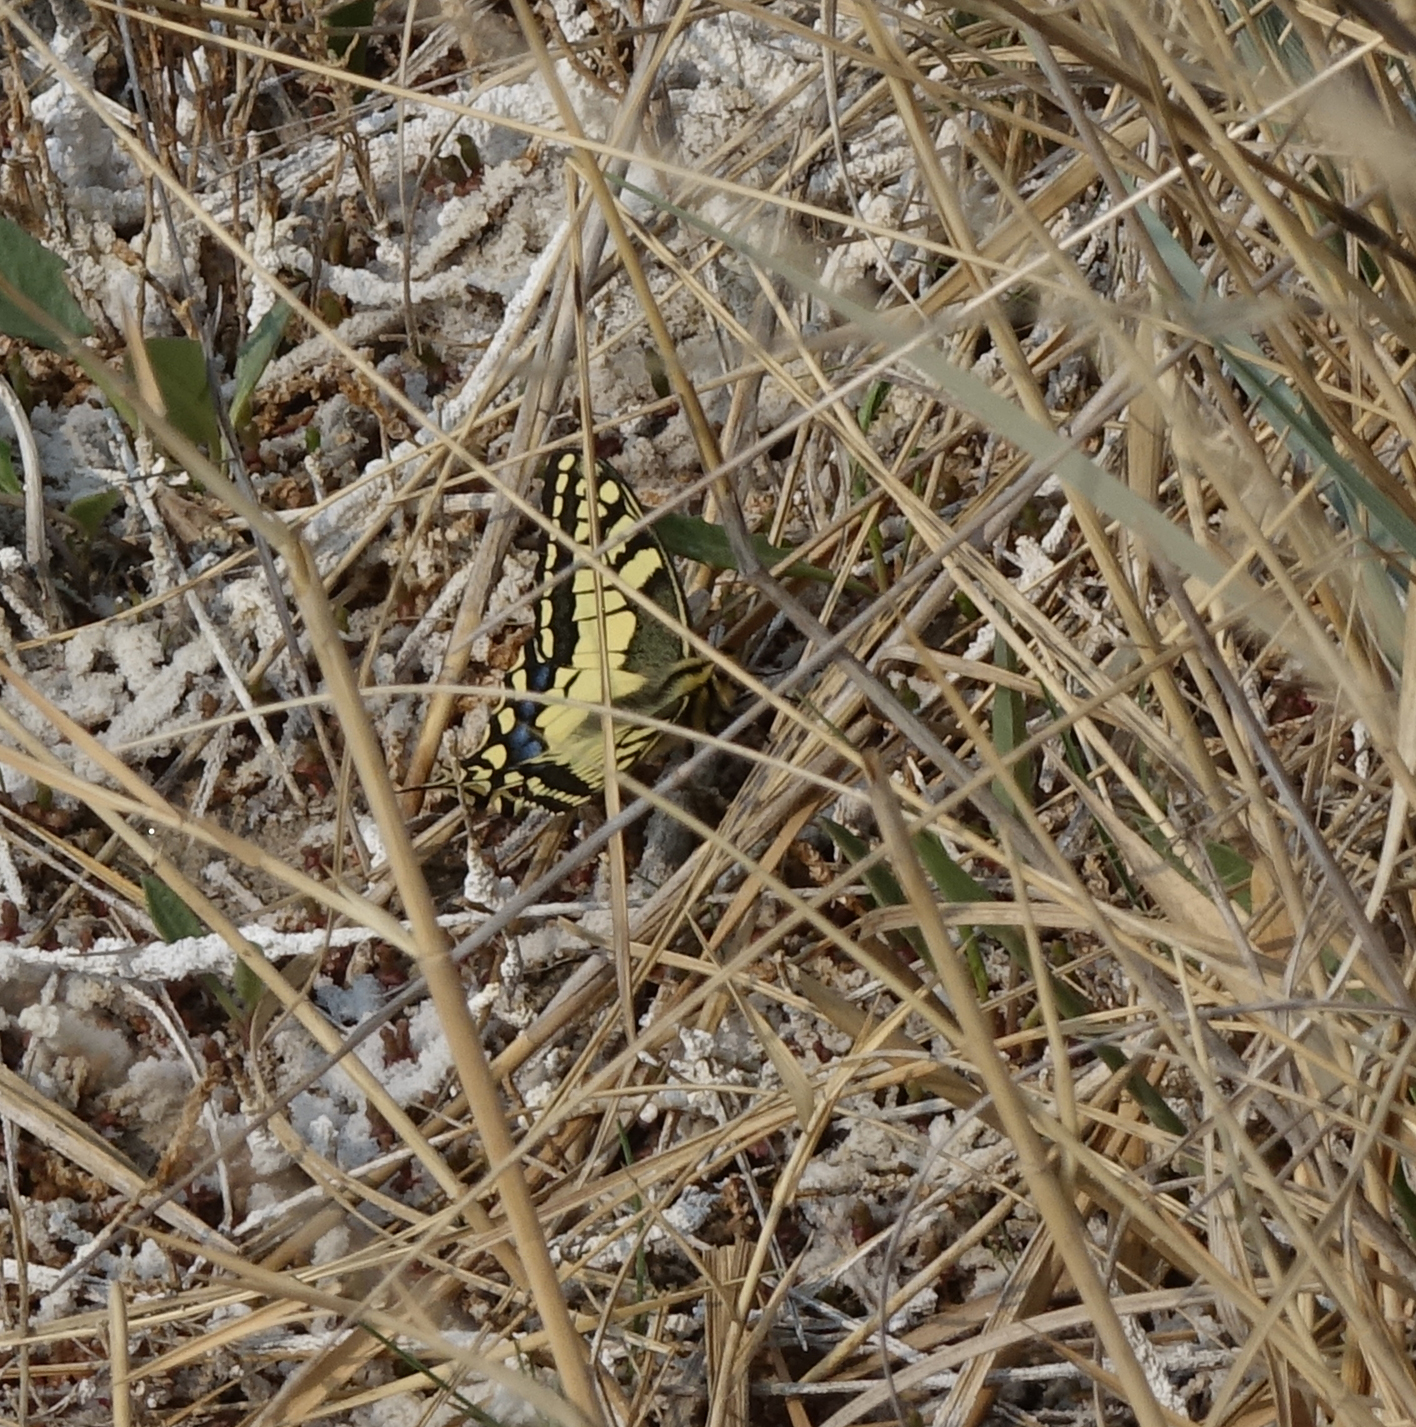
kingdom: Animalia
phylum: Arthropoda
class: Insecta
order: Lepidoptera
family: Papilionidae
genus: Papilio
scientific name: Papilio machaon
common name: Swallowtail
